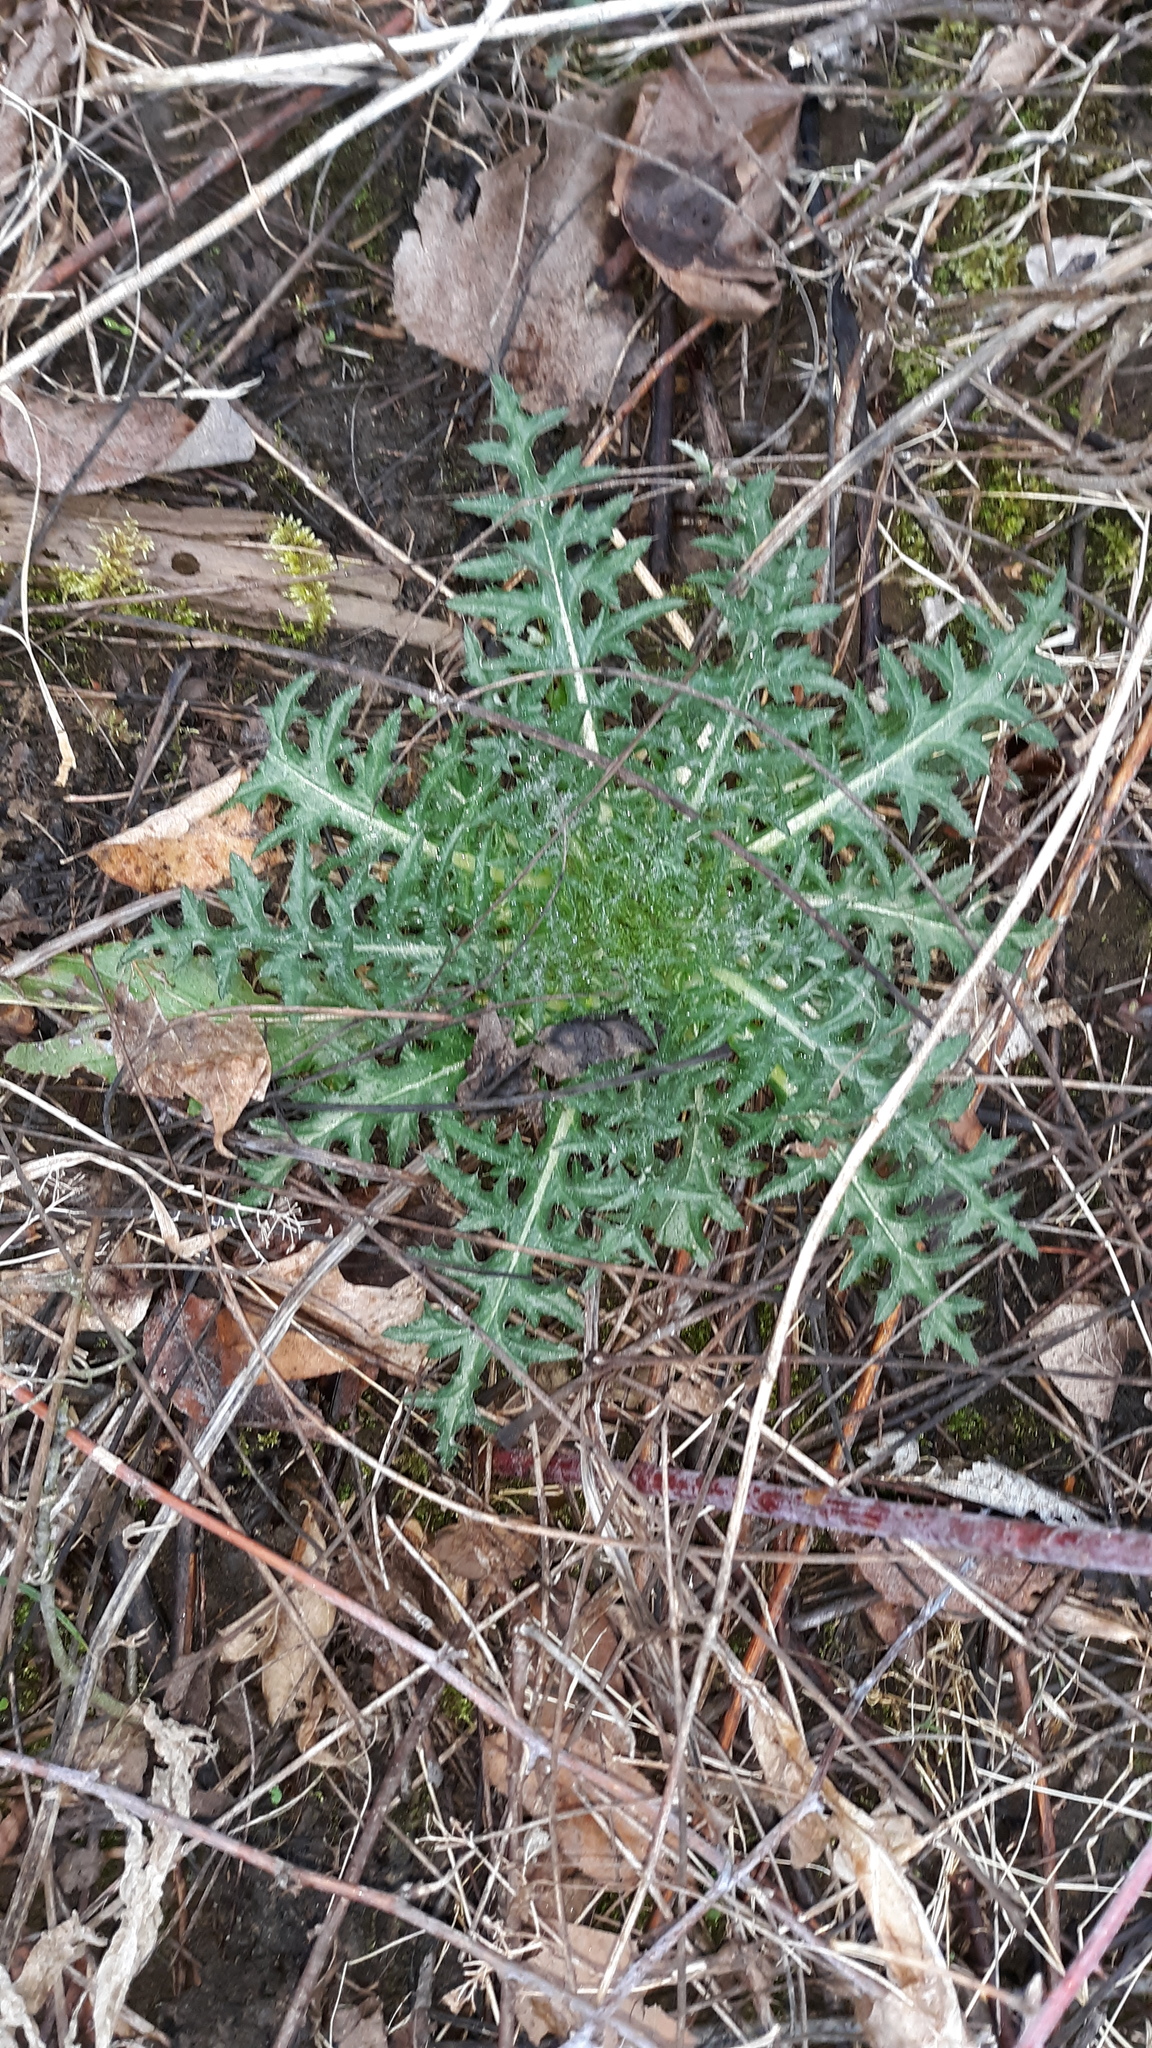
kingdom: Plantae
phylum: Tracheophyta
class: Magnoliopsida
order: Asterales
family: Asteraceae
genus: Cirsium
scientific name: Cirsium vulgare
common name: Bull thistle
